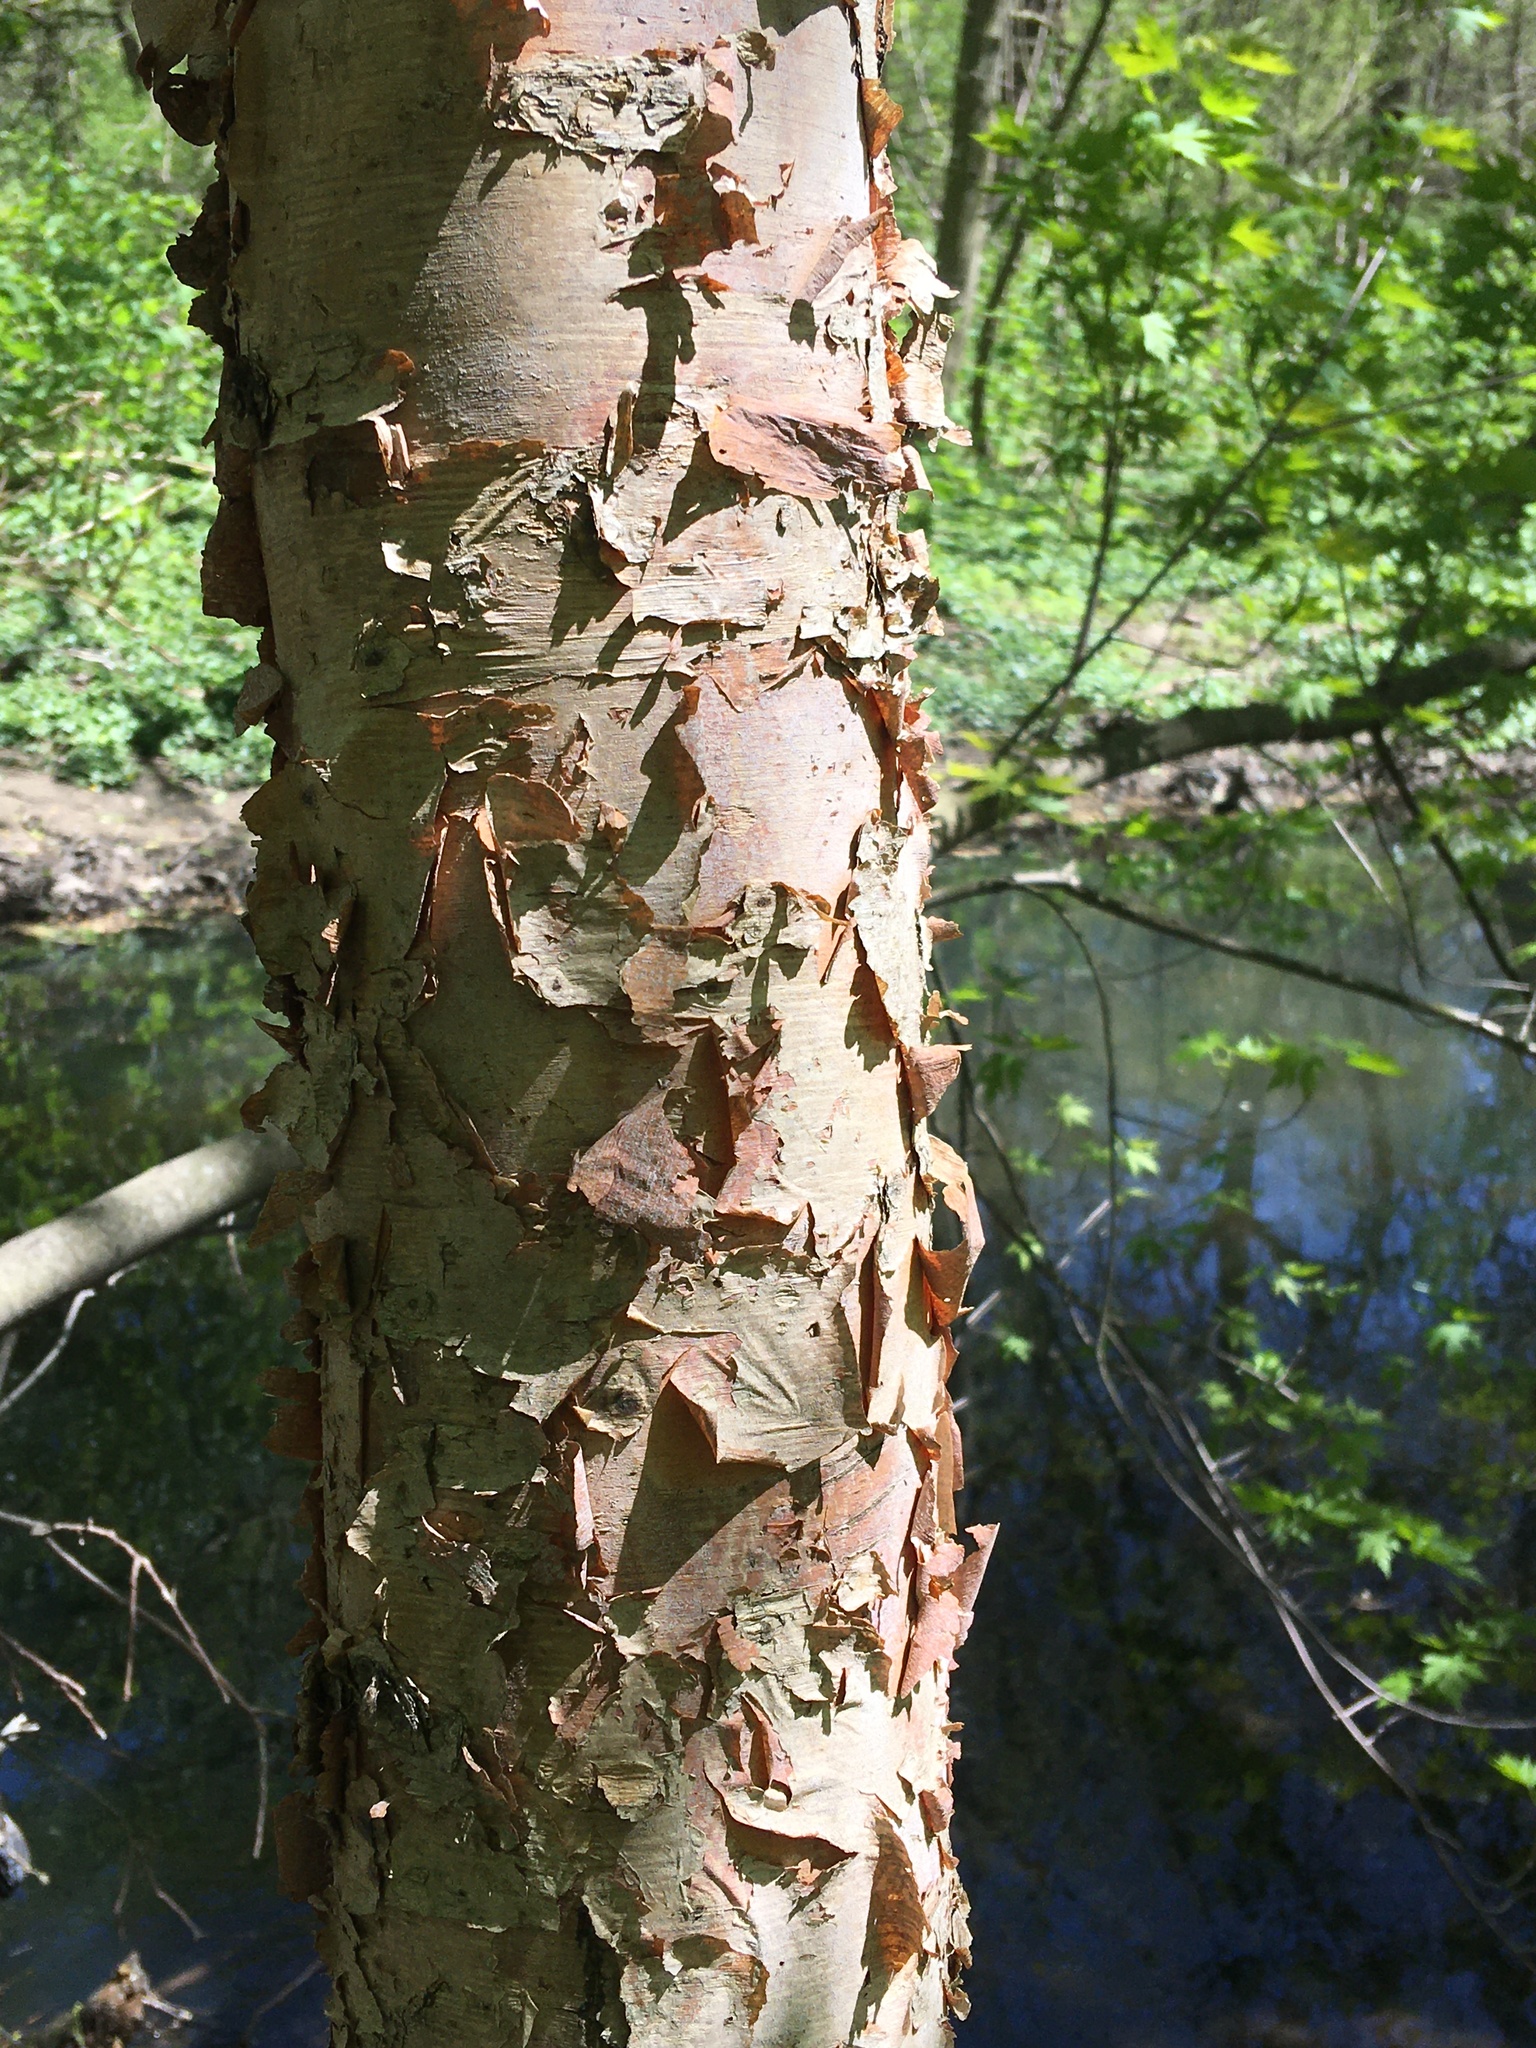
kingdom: Plantae
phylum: Tracheophyta
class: Magnoliopsida
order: Fagales
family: Betulaceae
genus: Betula
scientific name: Betula nigra
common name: Black birch
